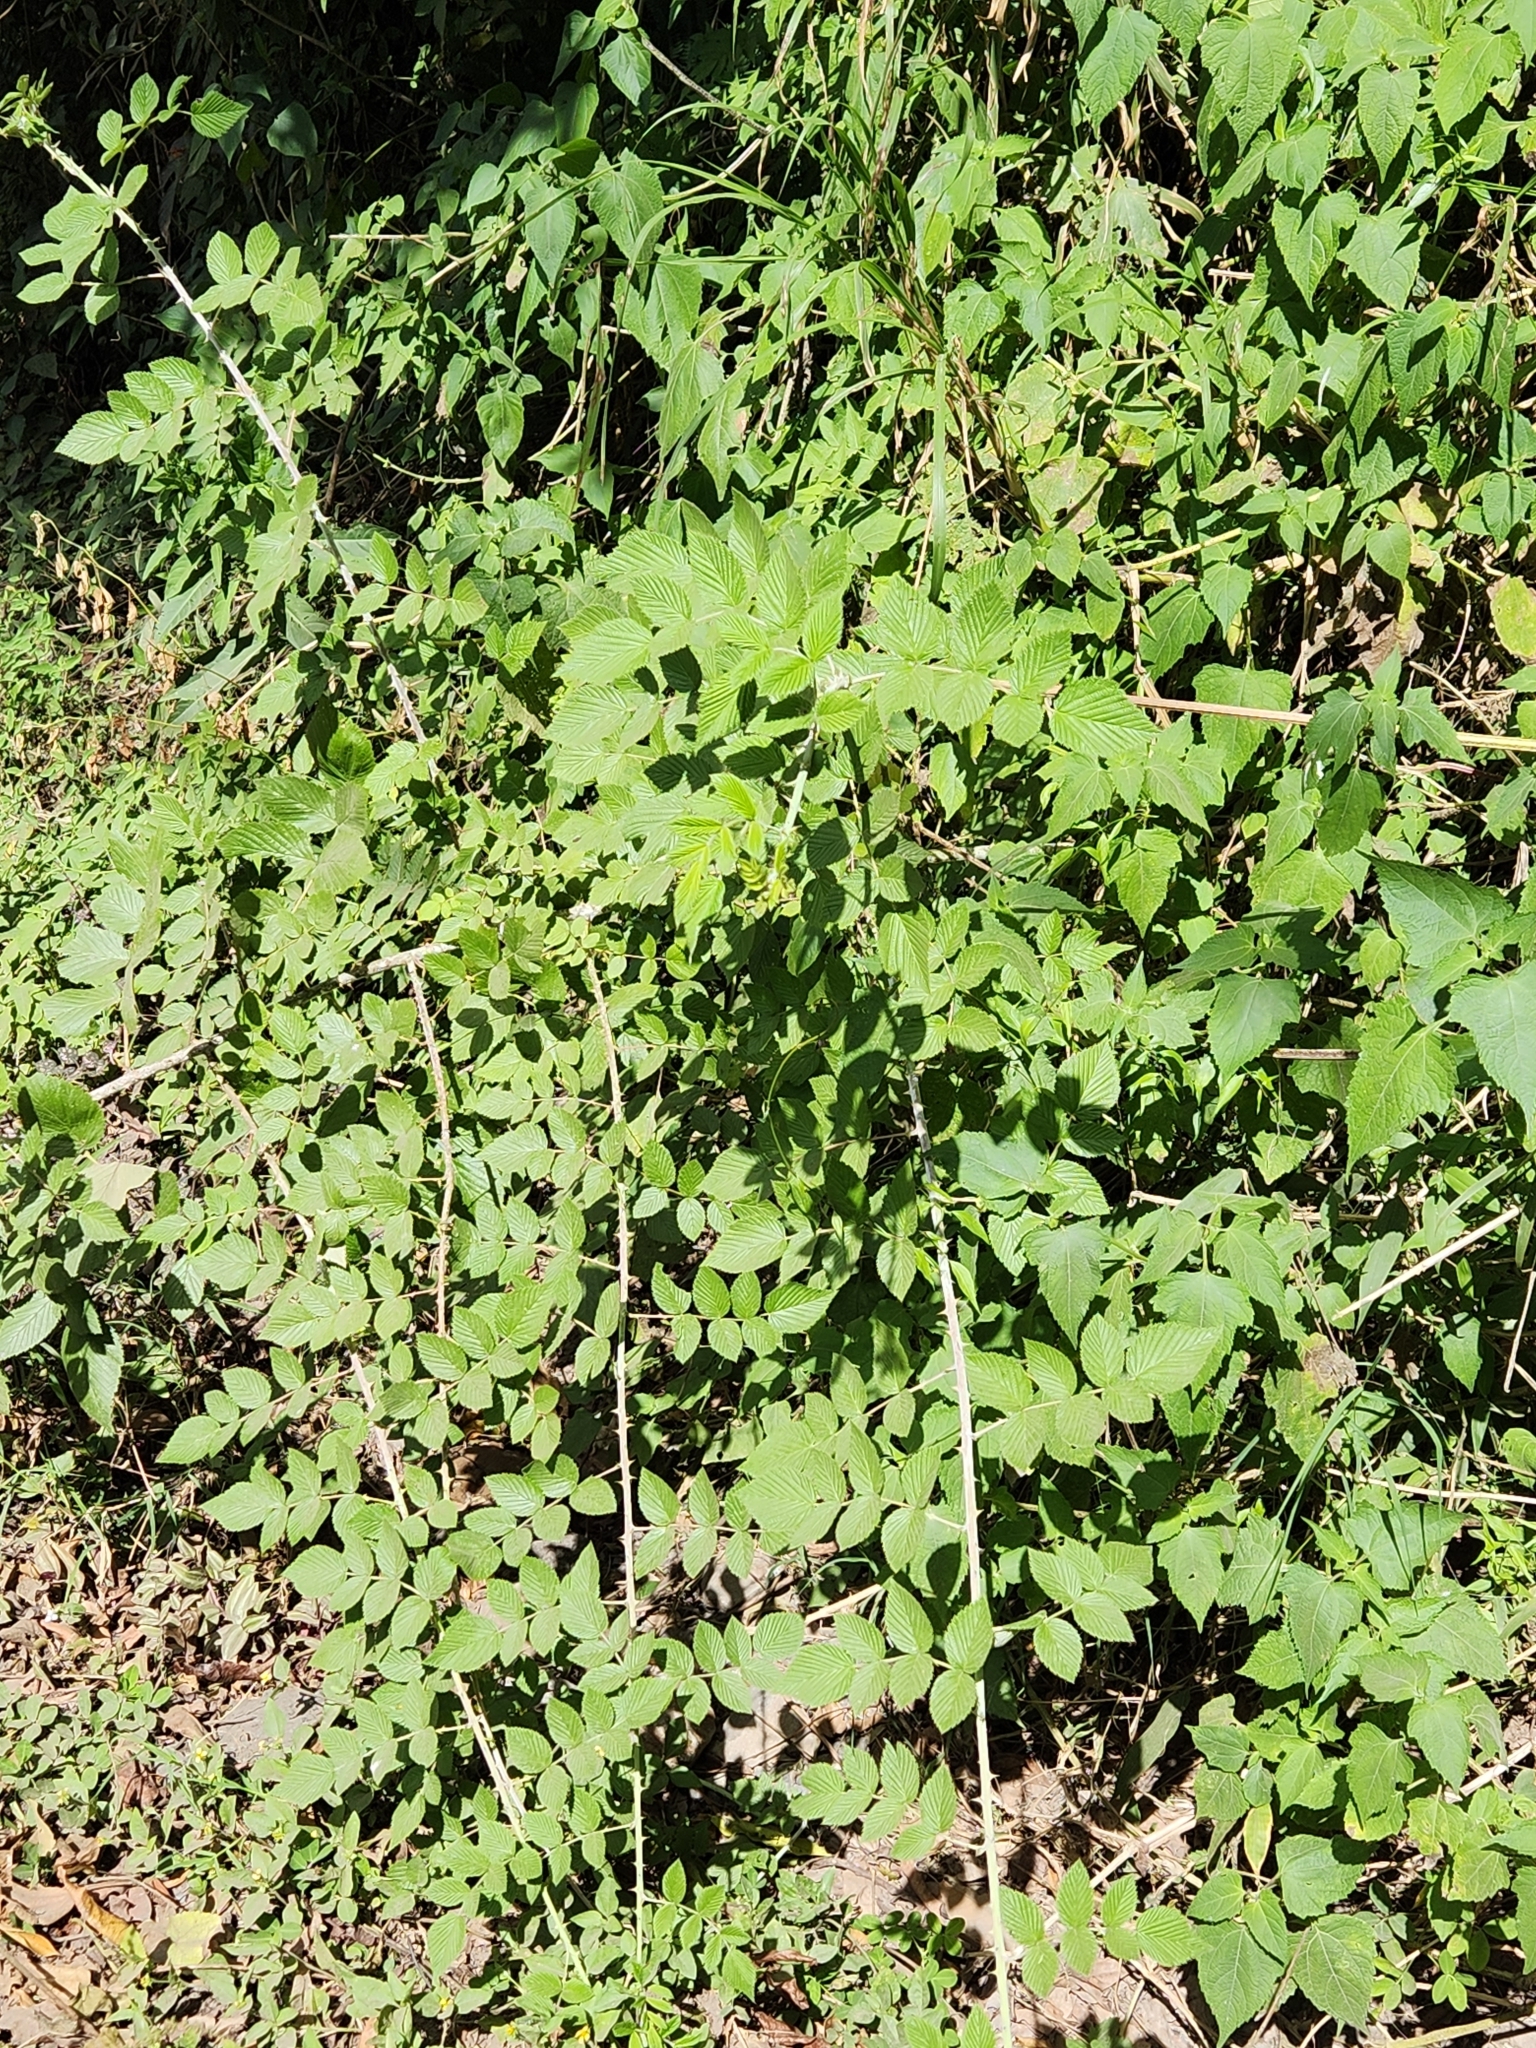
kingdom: Plantae
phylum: Tracheophyta
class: Magnoliopsida
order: Rosales
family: Rosaceae
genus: Rubus
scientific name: Rubus niveus
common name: Snowpeaks raspberry
